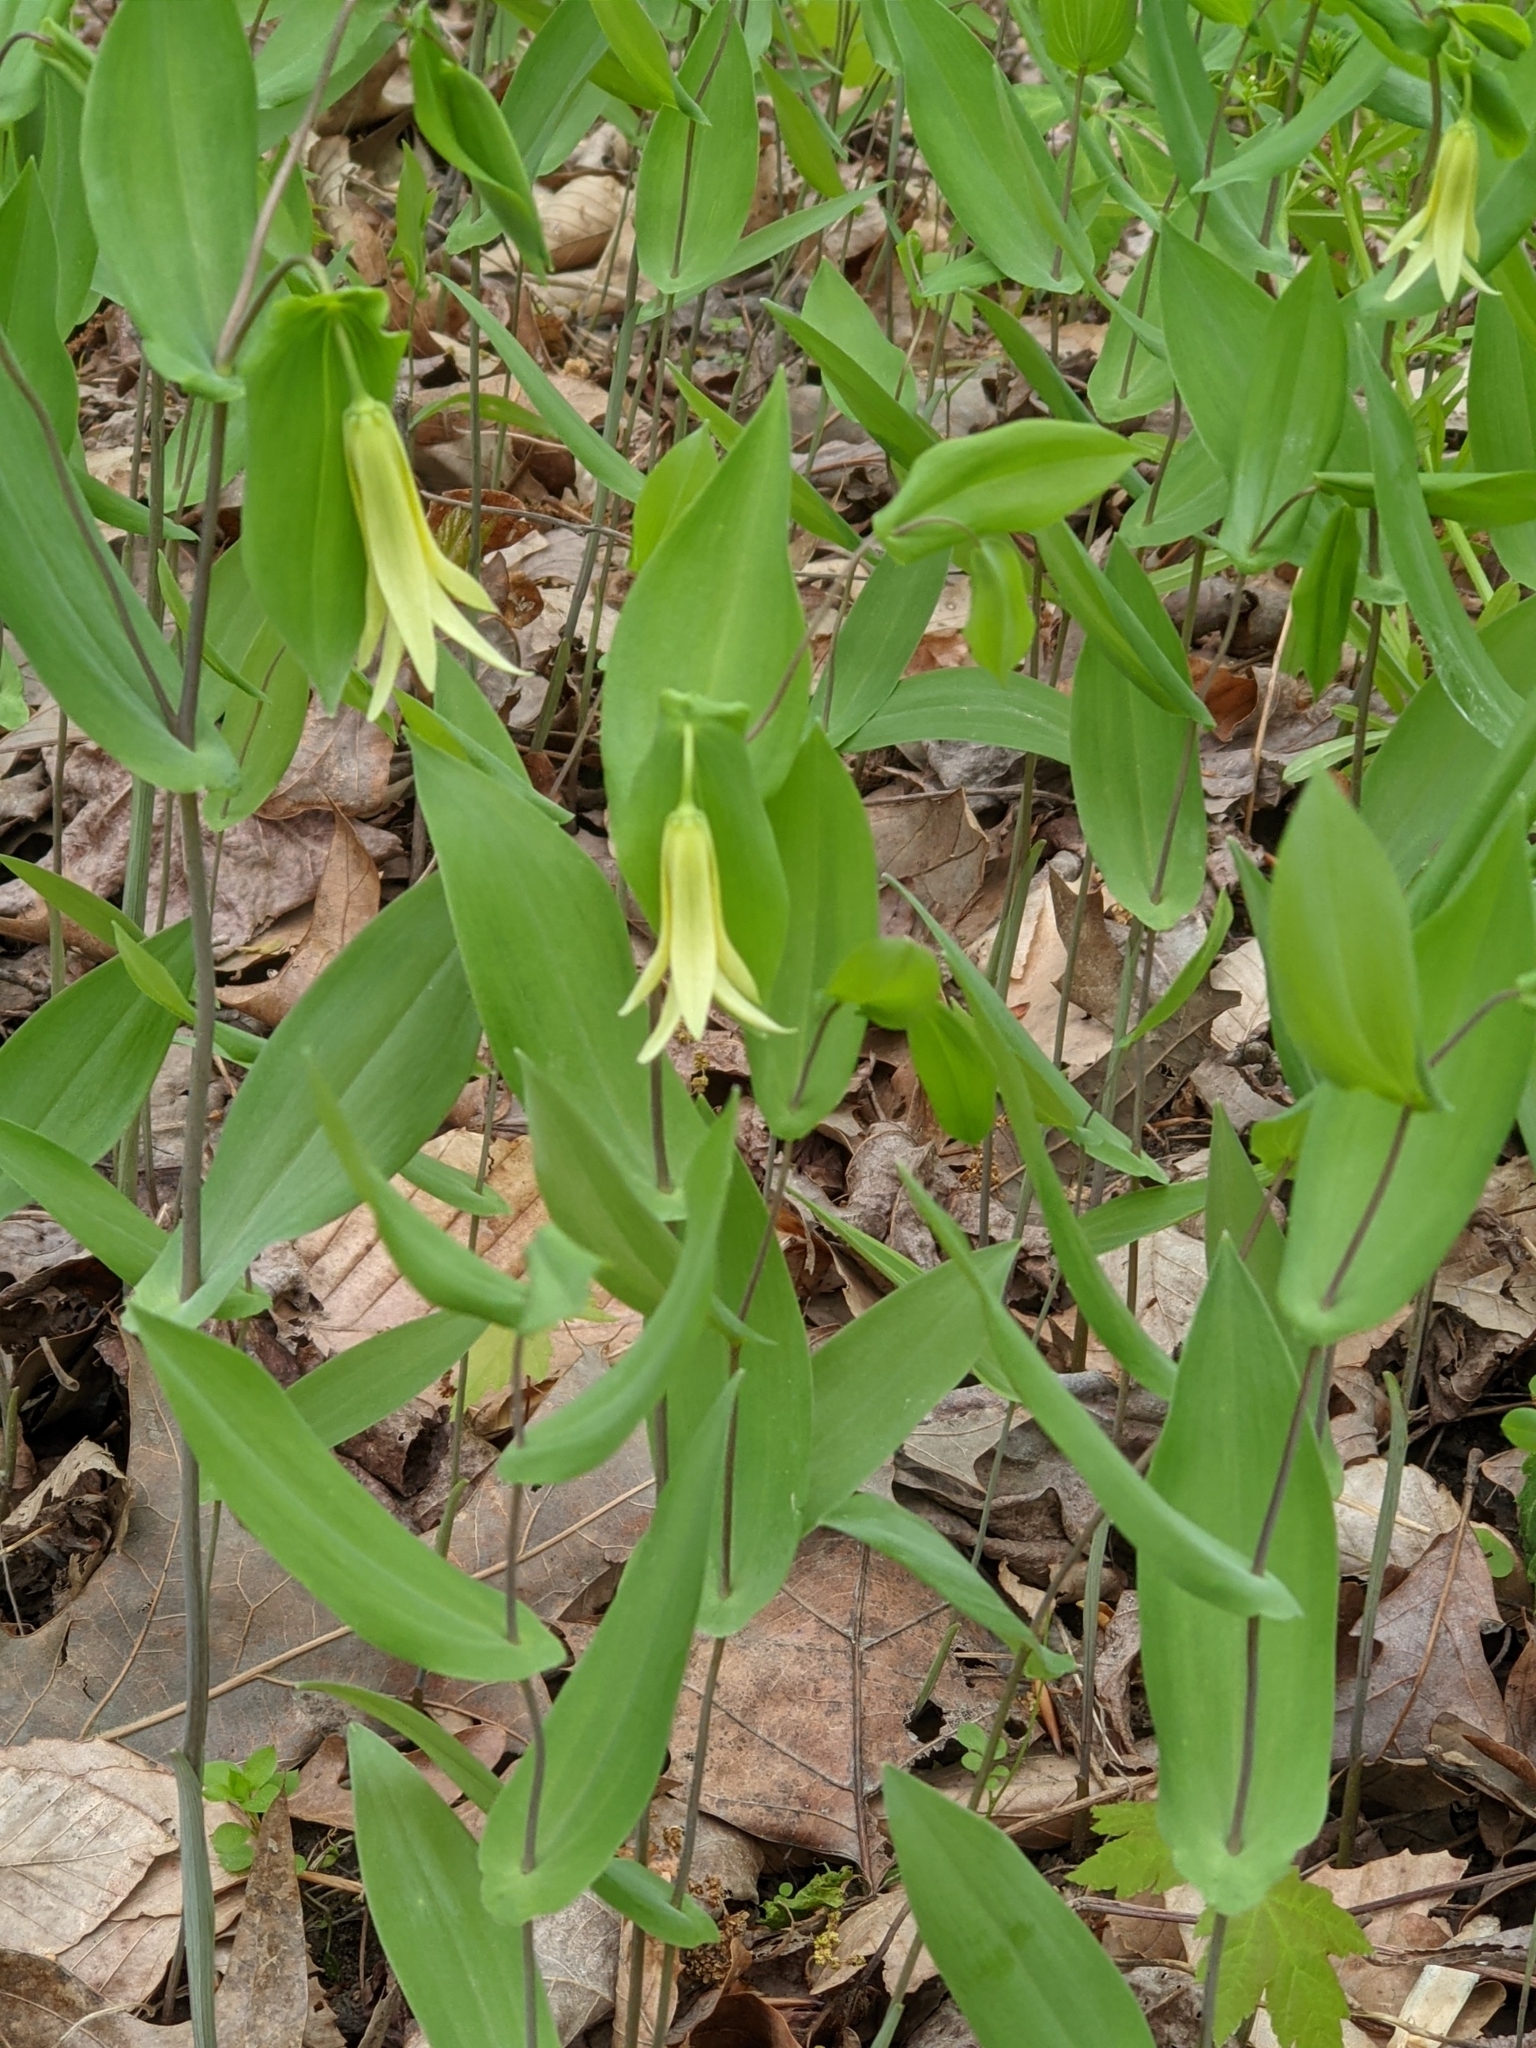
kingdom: Plantae
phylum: Tracheophyta
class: Liliopsida
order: Liliales
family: Colchicaceae
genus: Uvularia
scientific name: Uvularia perfoliata
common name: Perfoliate bellwort
